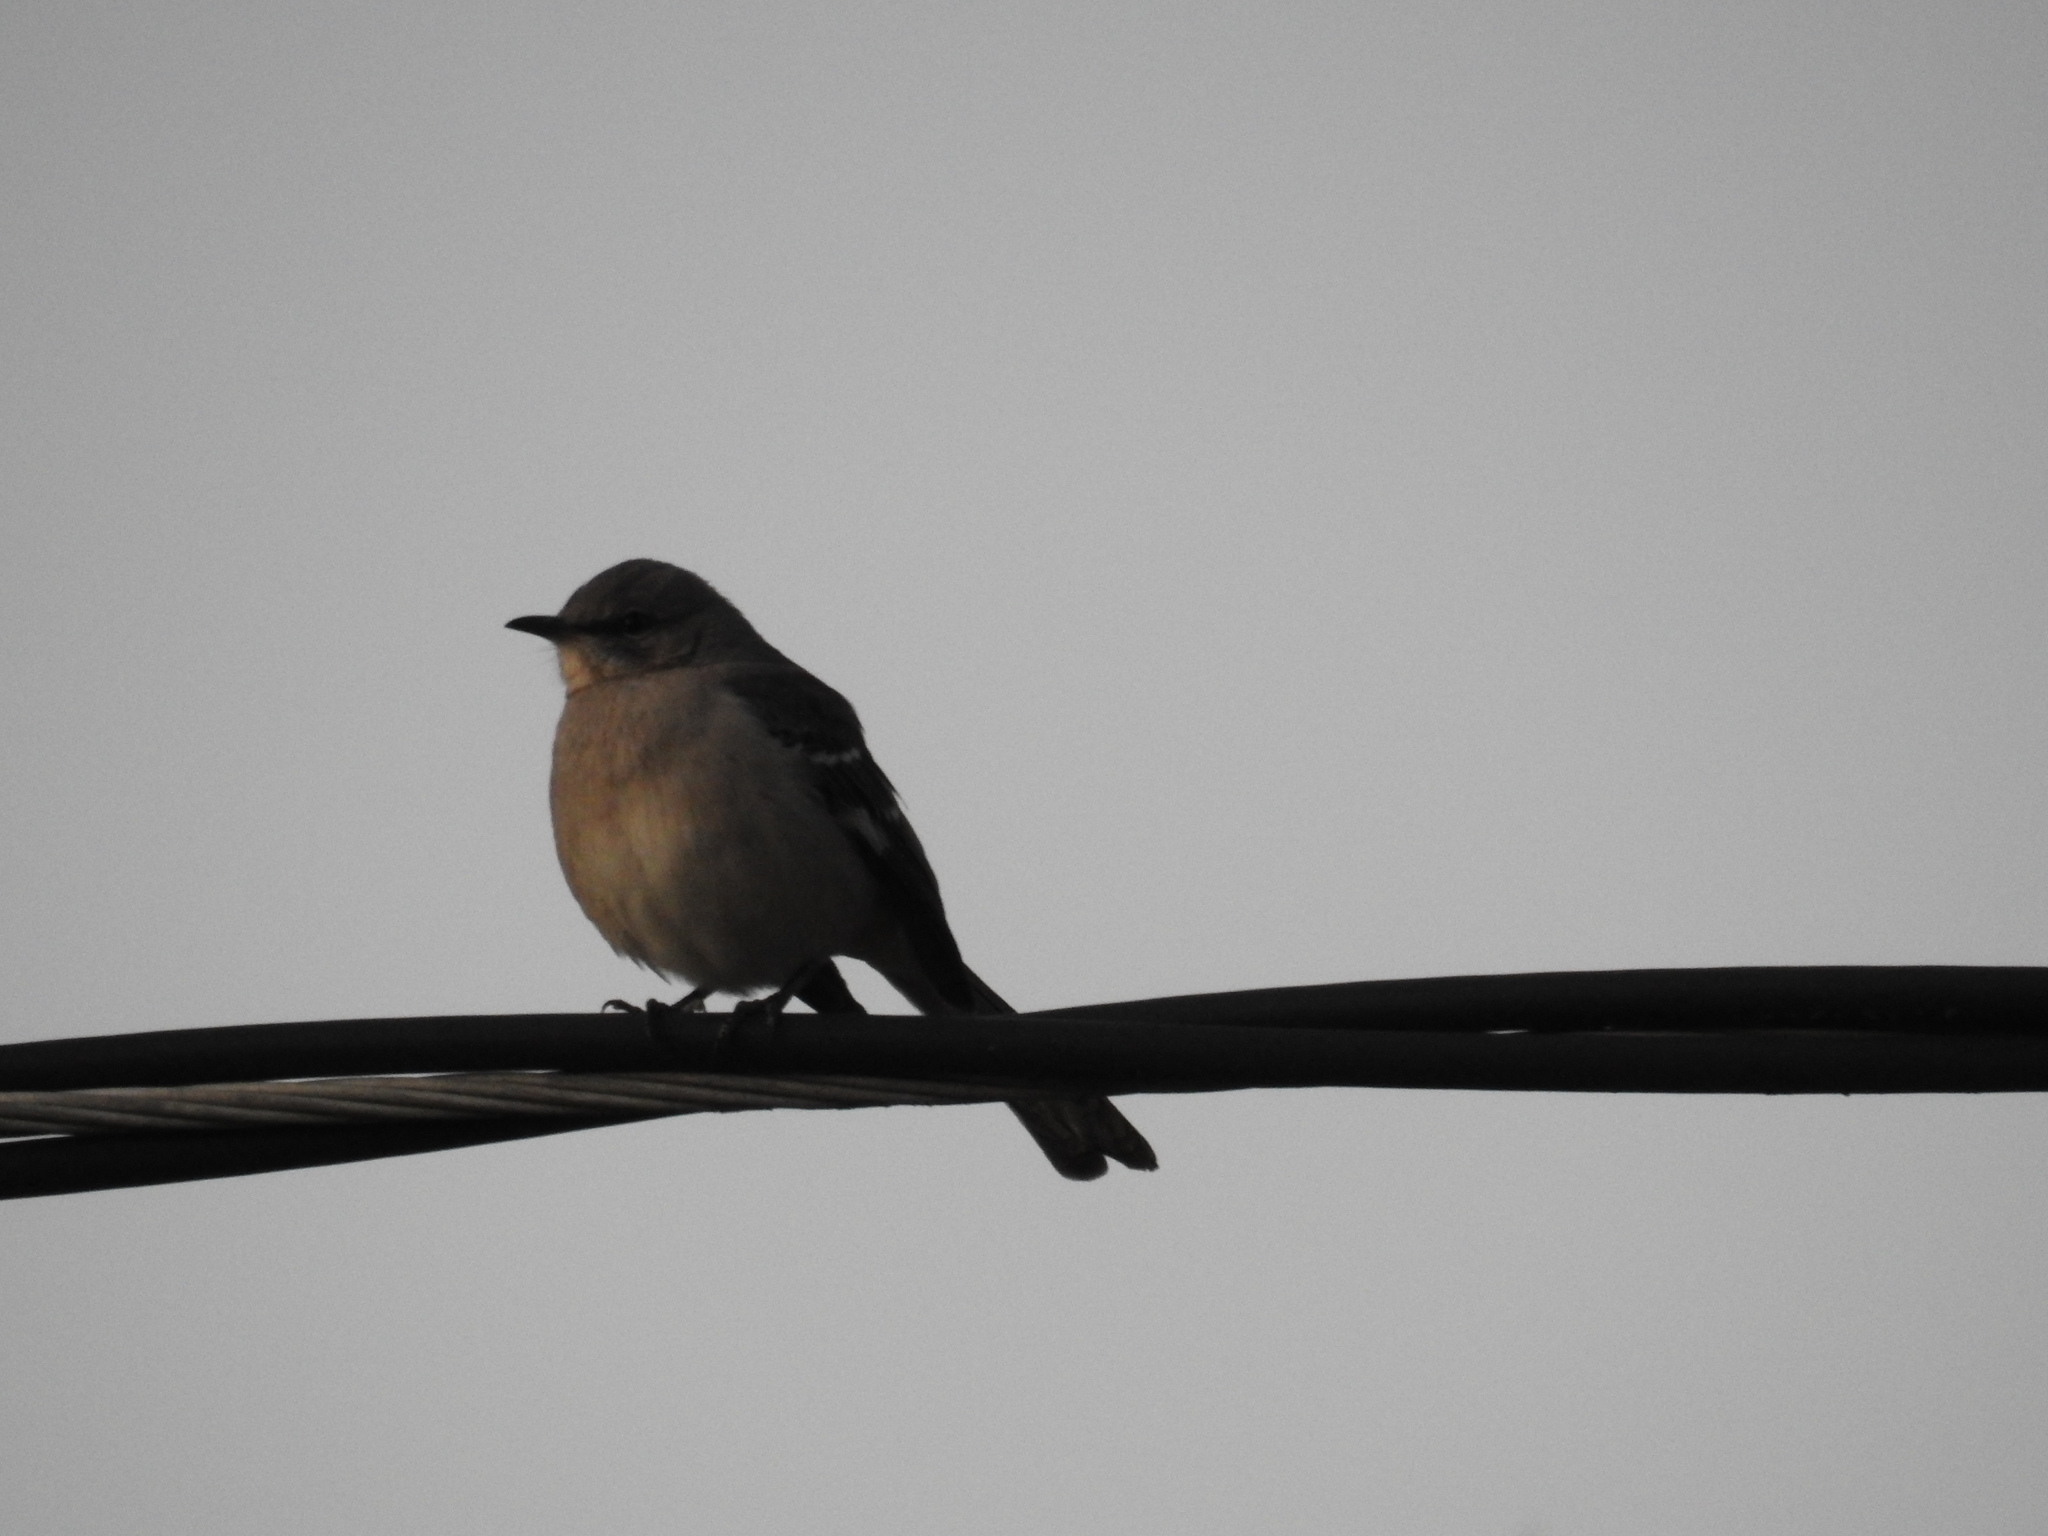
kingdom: Animalia
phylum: Chordata
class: Aves
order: Passeriformes
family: Mimidae
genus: Mimus
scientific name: Mimus polyglottos
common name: Northern mockingbird
